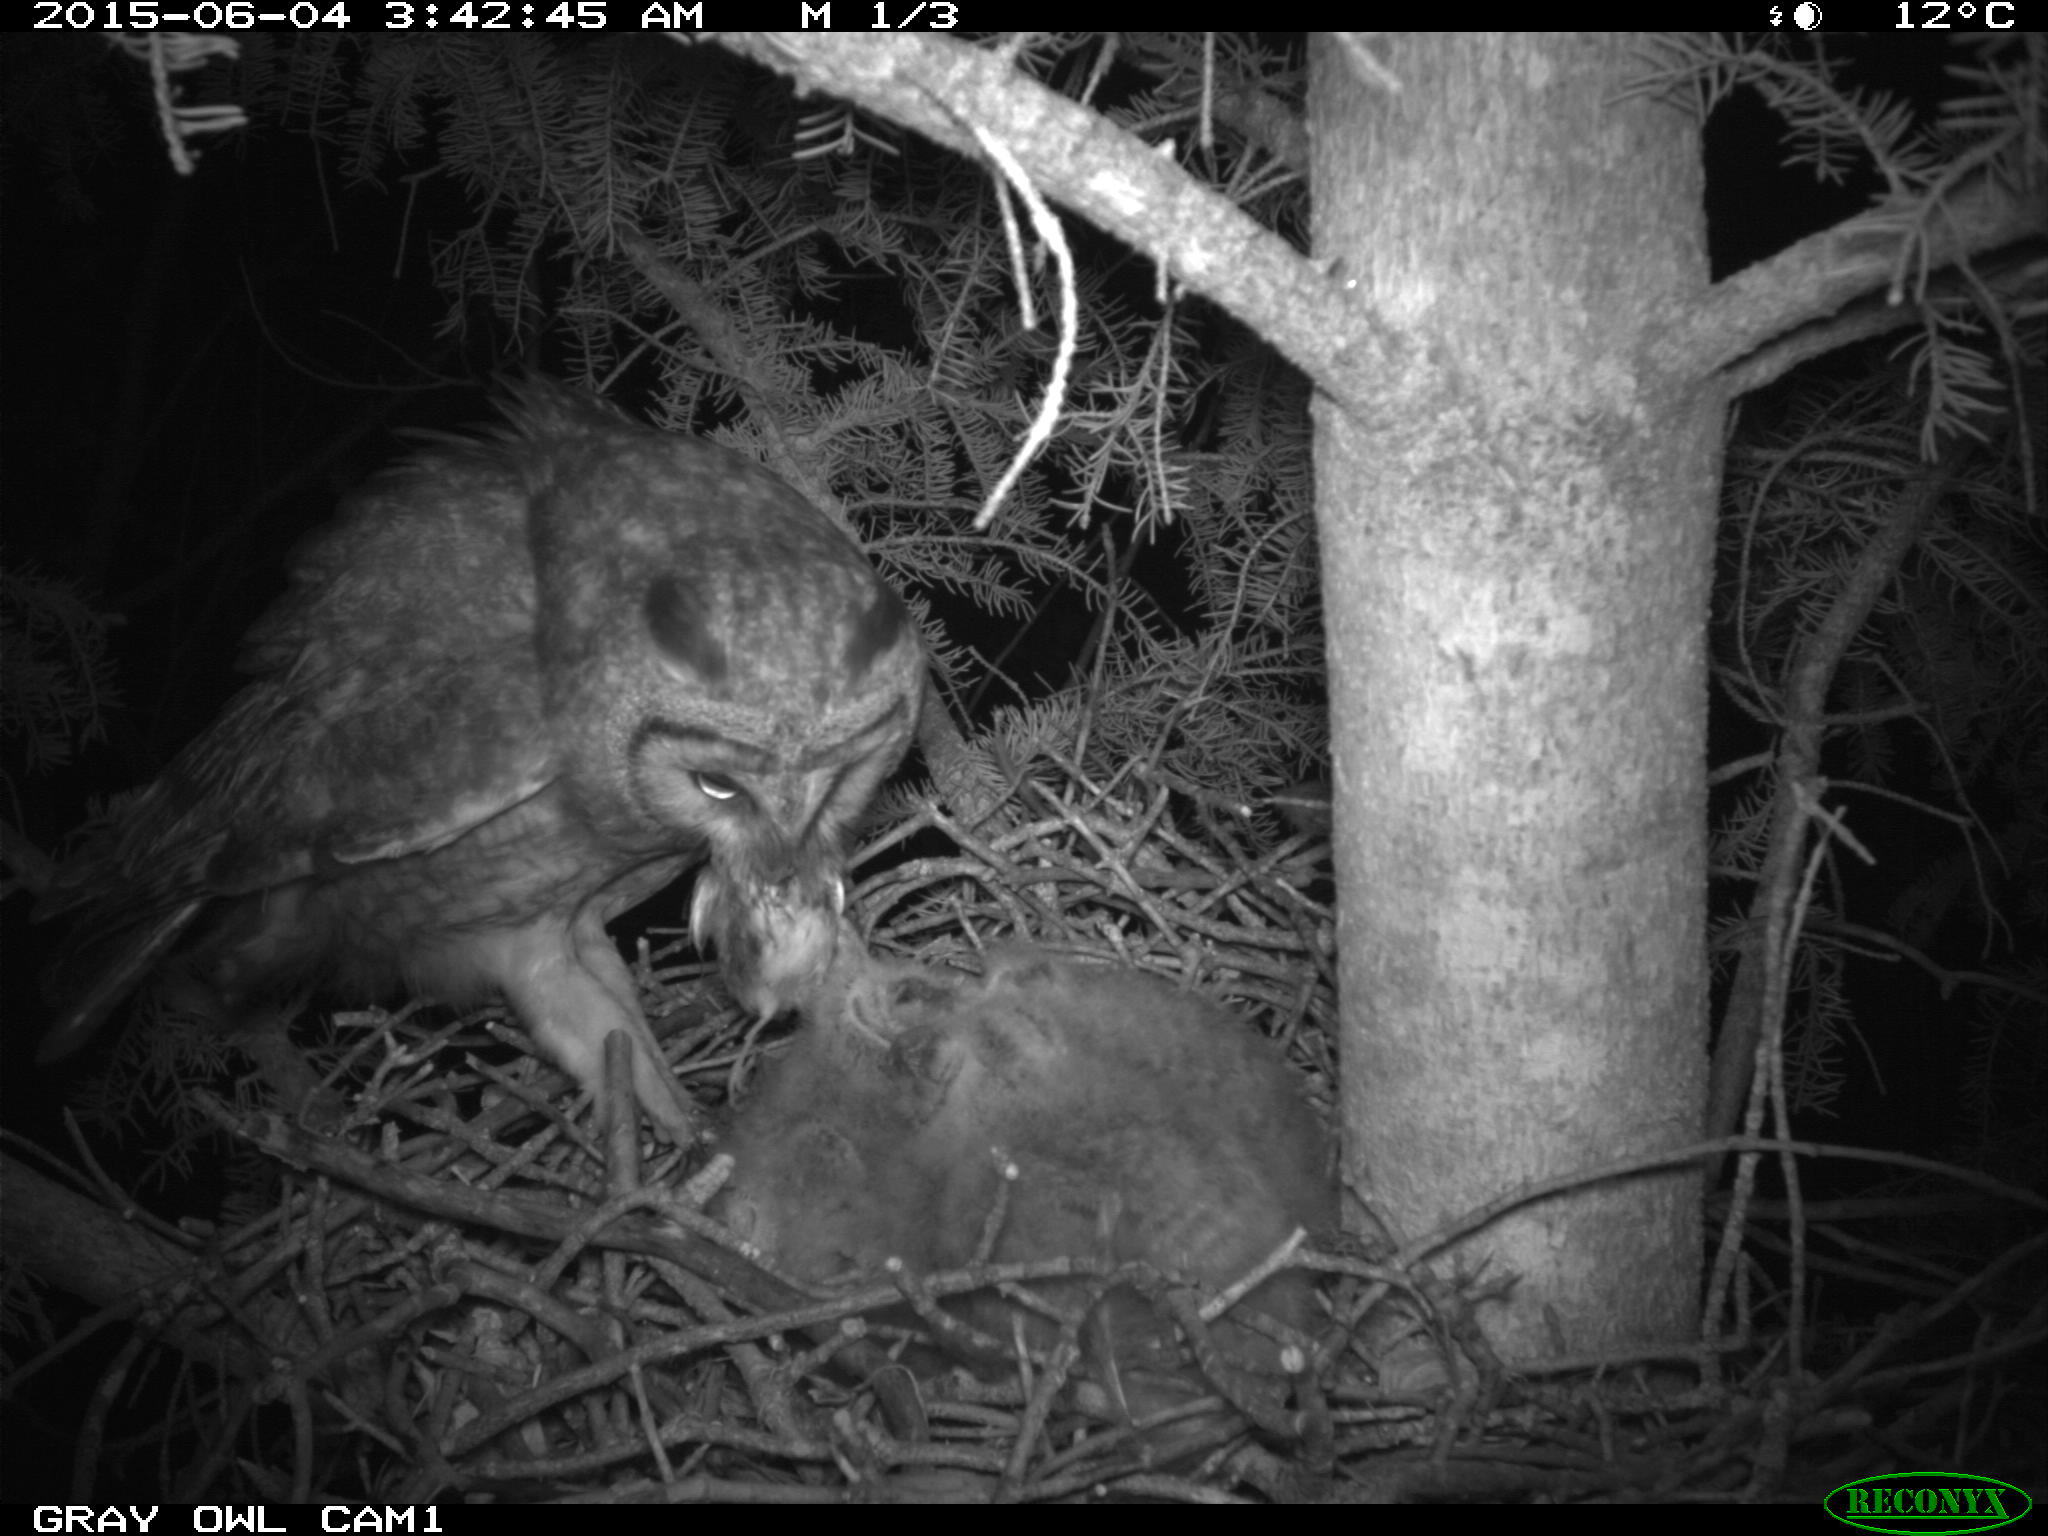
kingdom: Animalia
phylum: Chordata
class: Aves
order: Passeriformes
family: Passerellidae
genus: Passerculus
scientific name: Passerculus sandwichensis
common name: Savannah sparrow
